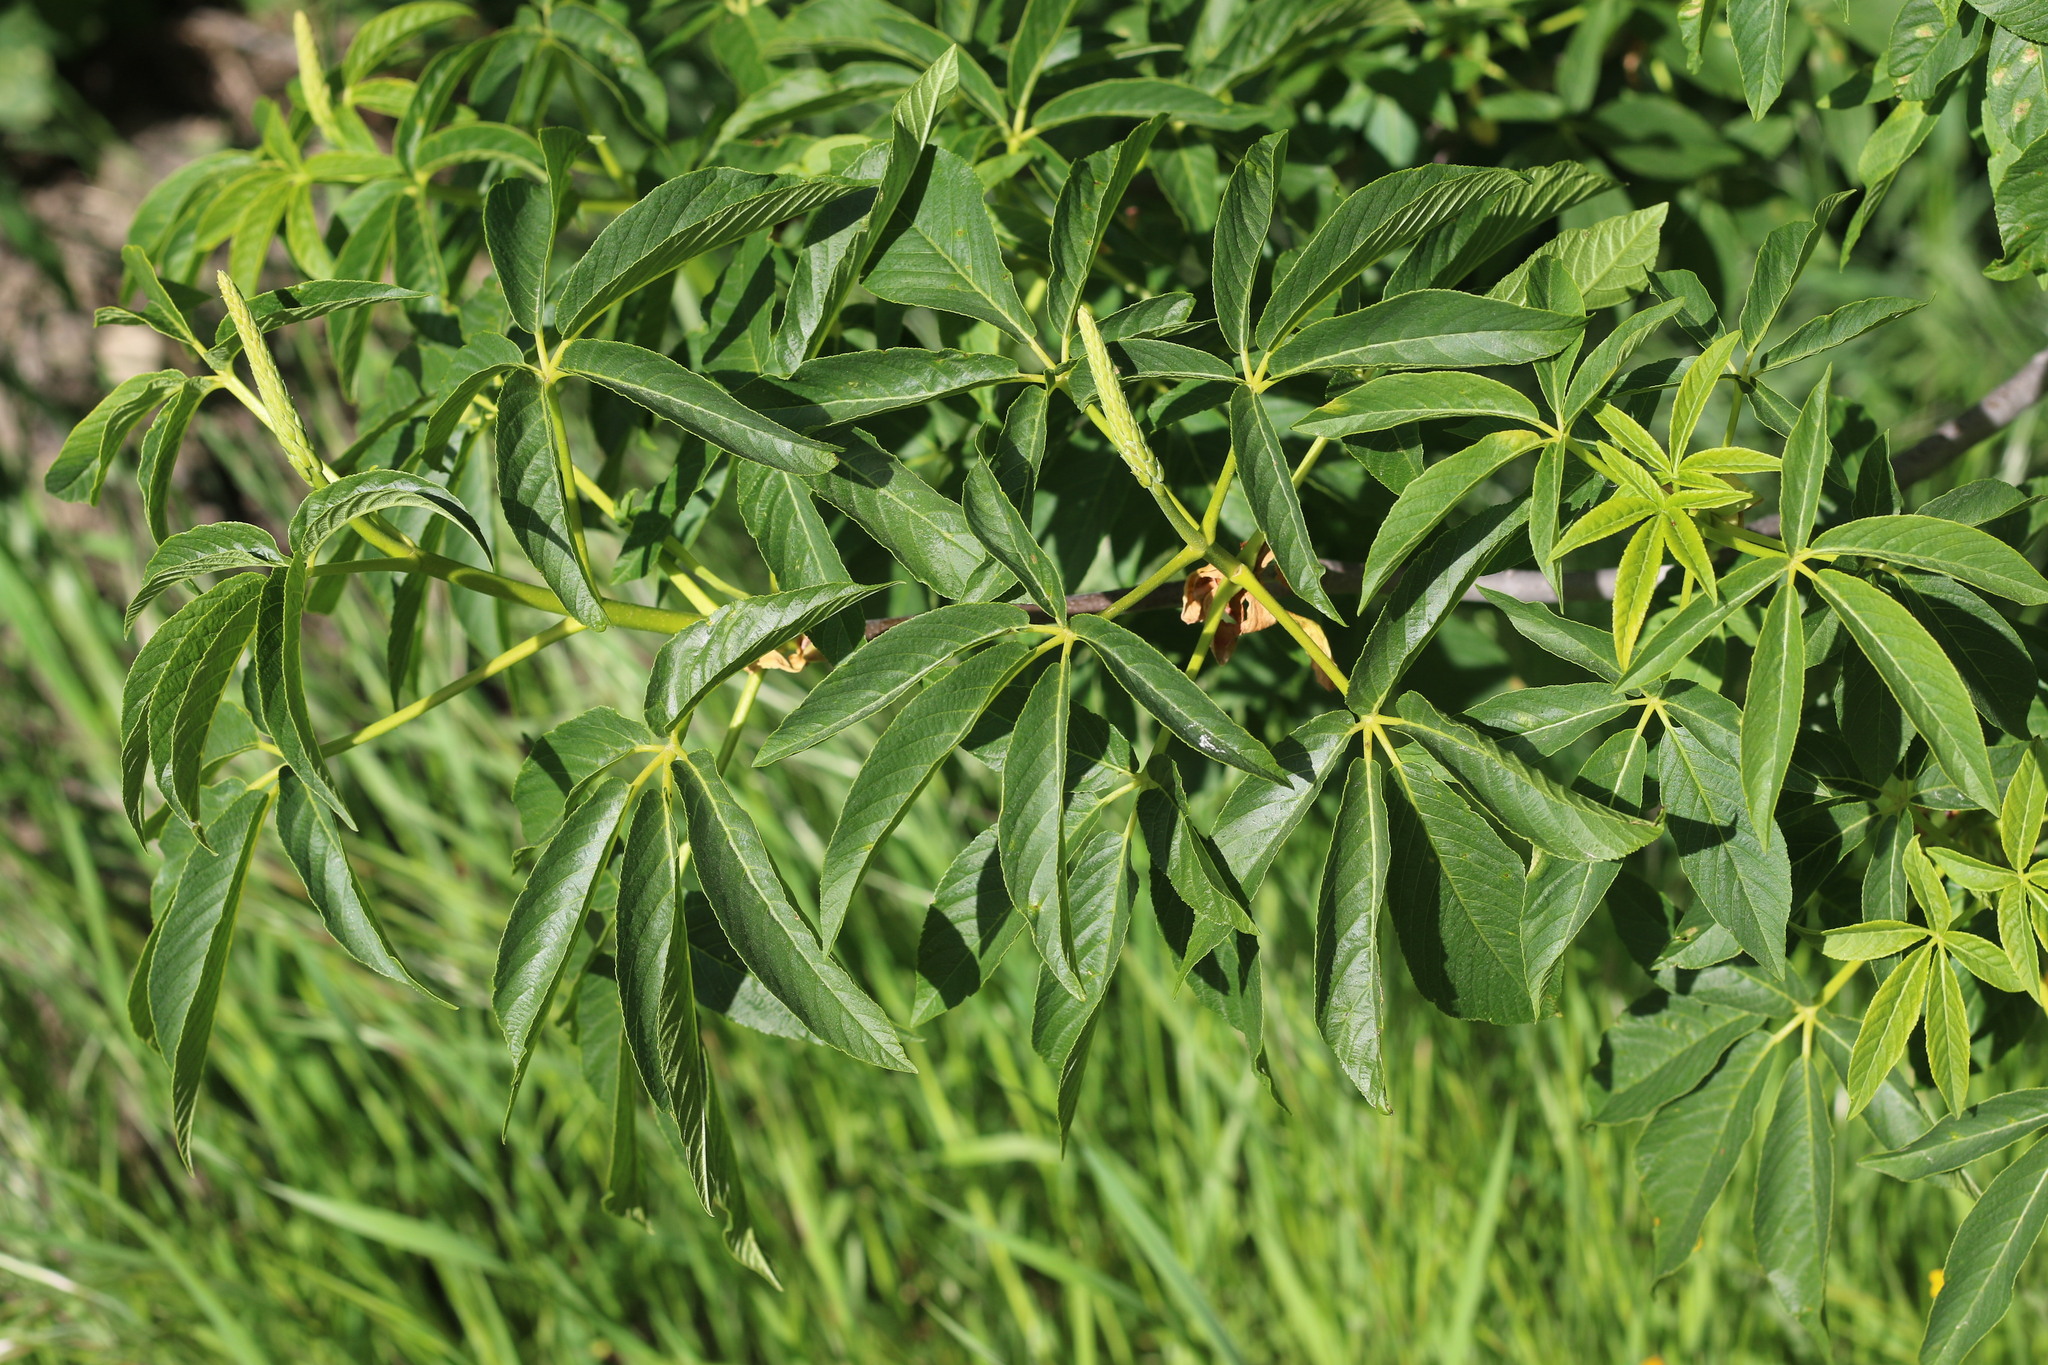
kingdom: Plantae
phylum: Tracheophyta
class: Magnoliopsida
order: Sapindales
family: Sapindaceae
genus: Aesculus
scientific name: Aesculus californica
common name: California buckeye
